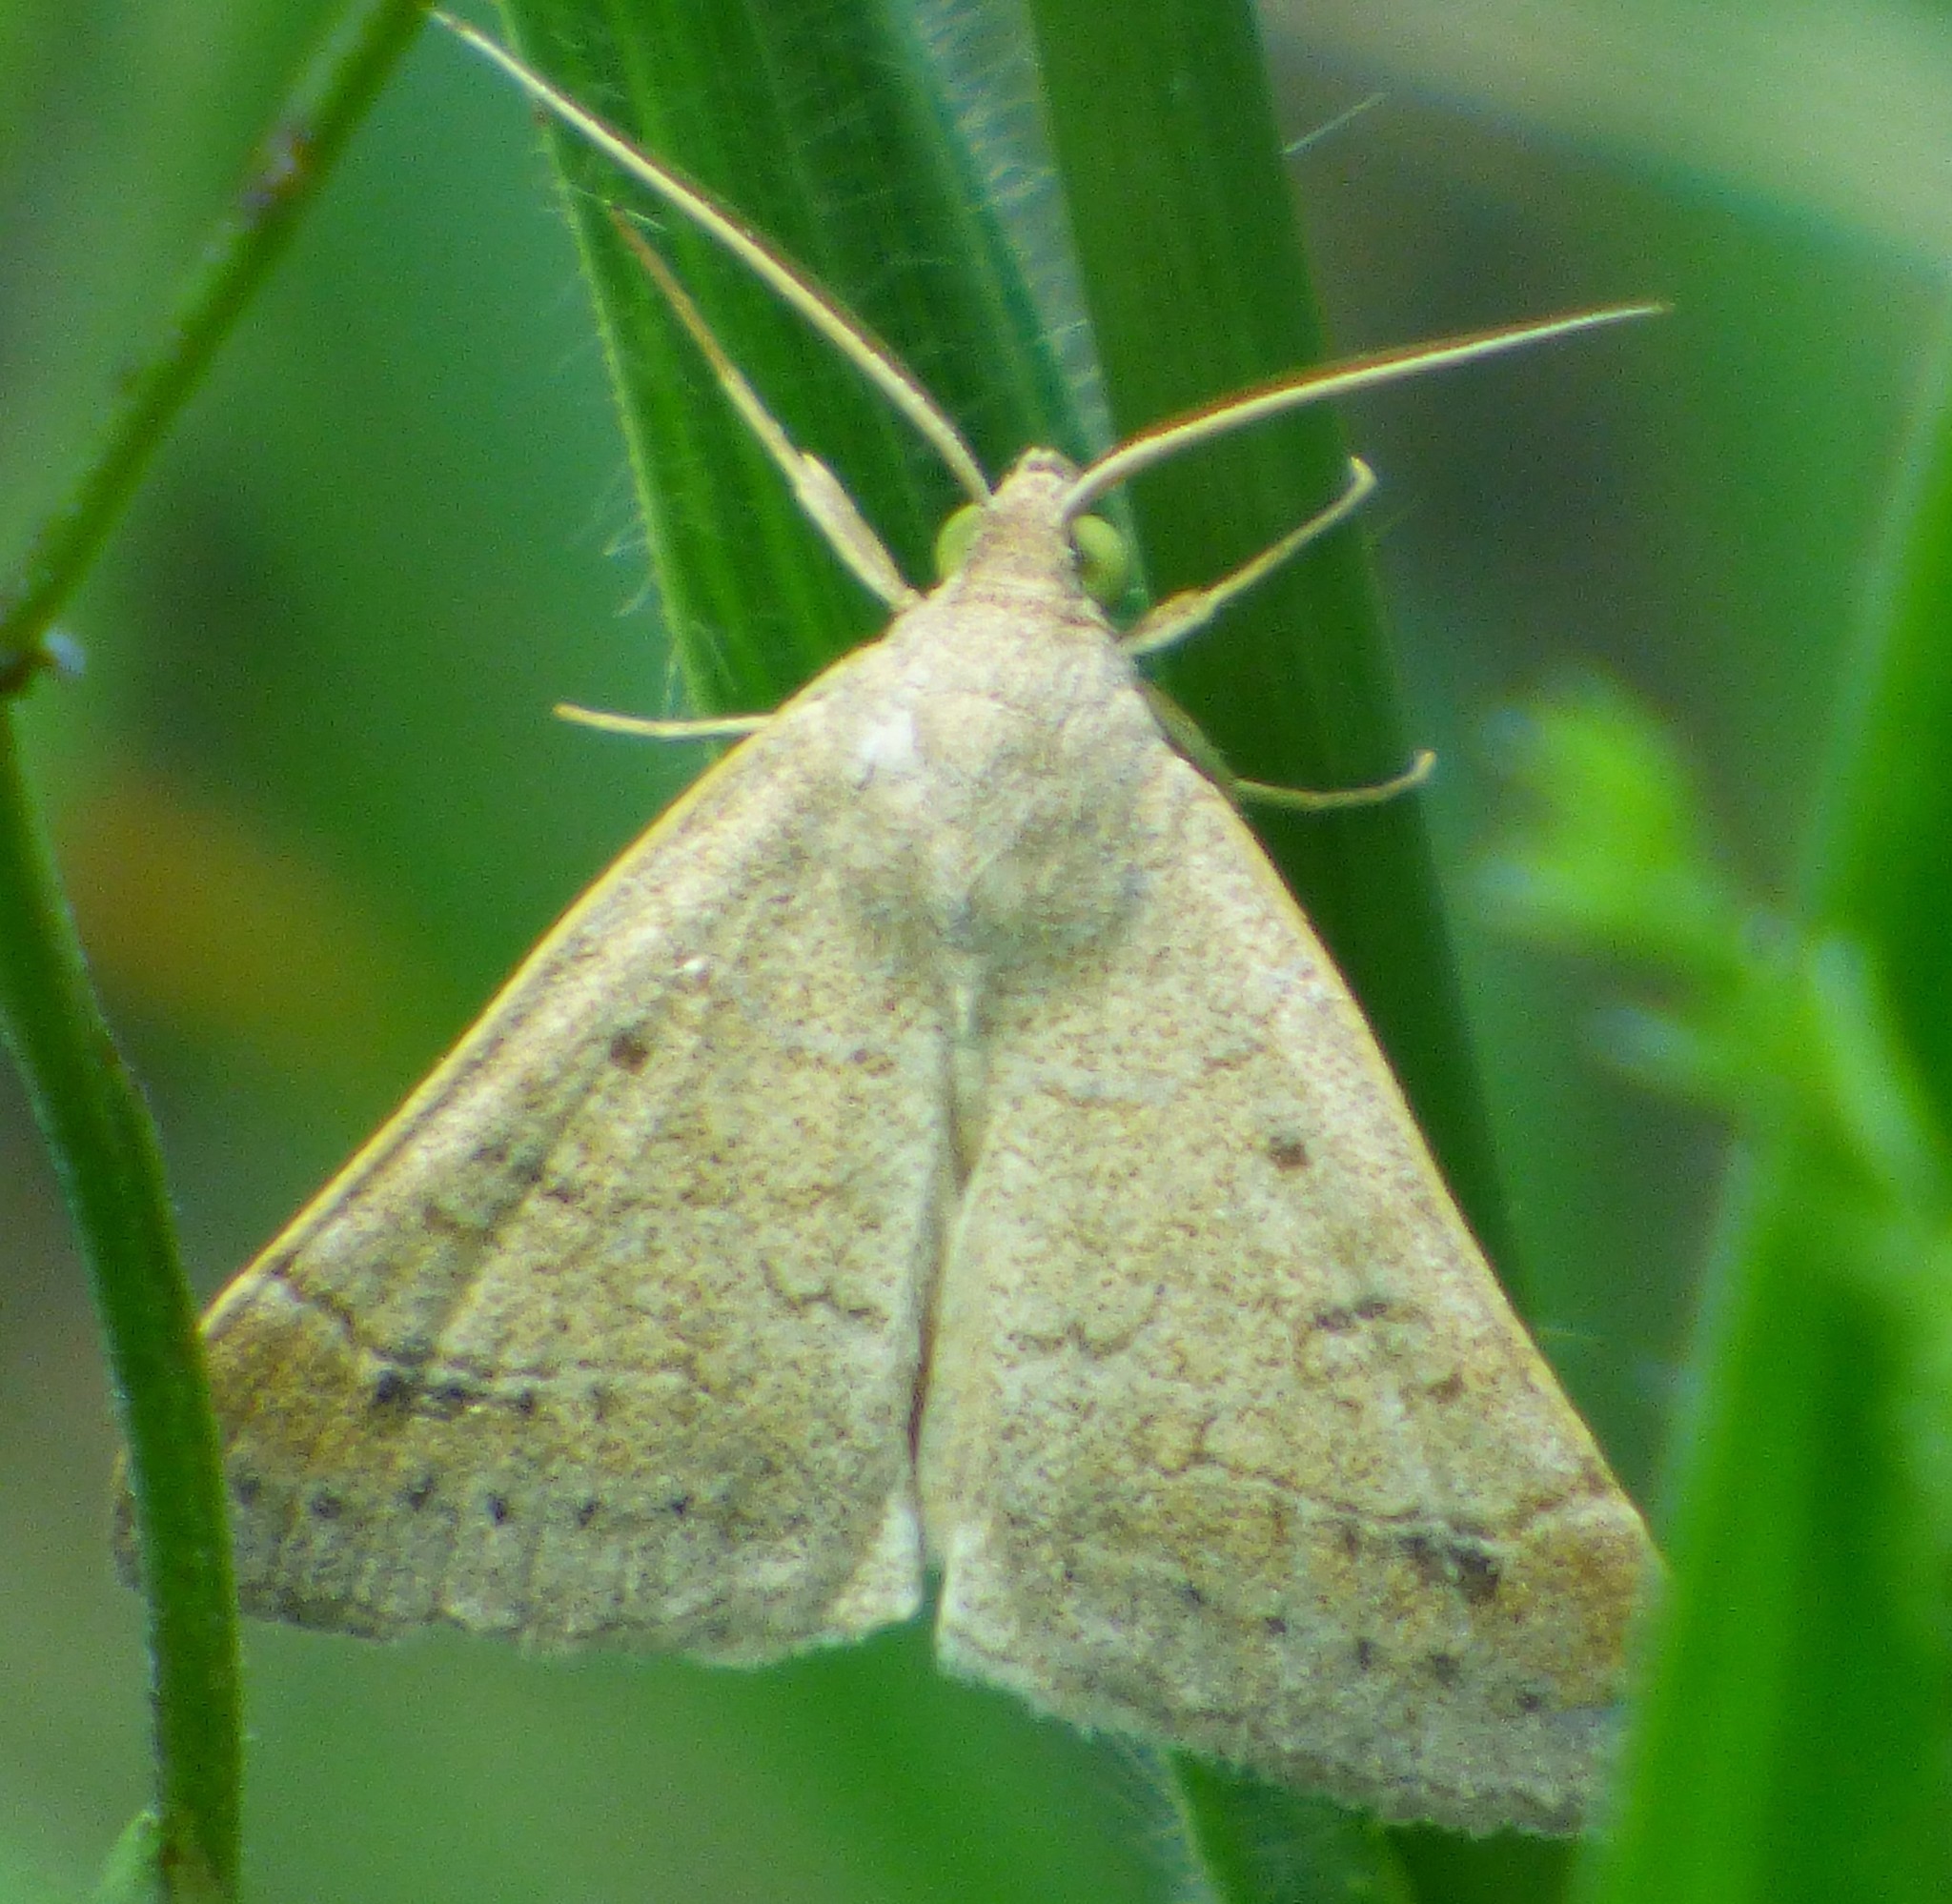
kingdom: Animalia
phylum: Arthropoda
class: Insecta
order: Lepidoptera
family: Erebidae
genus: Caenurgia
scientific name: Caenurgia chloropha
